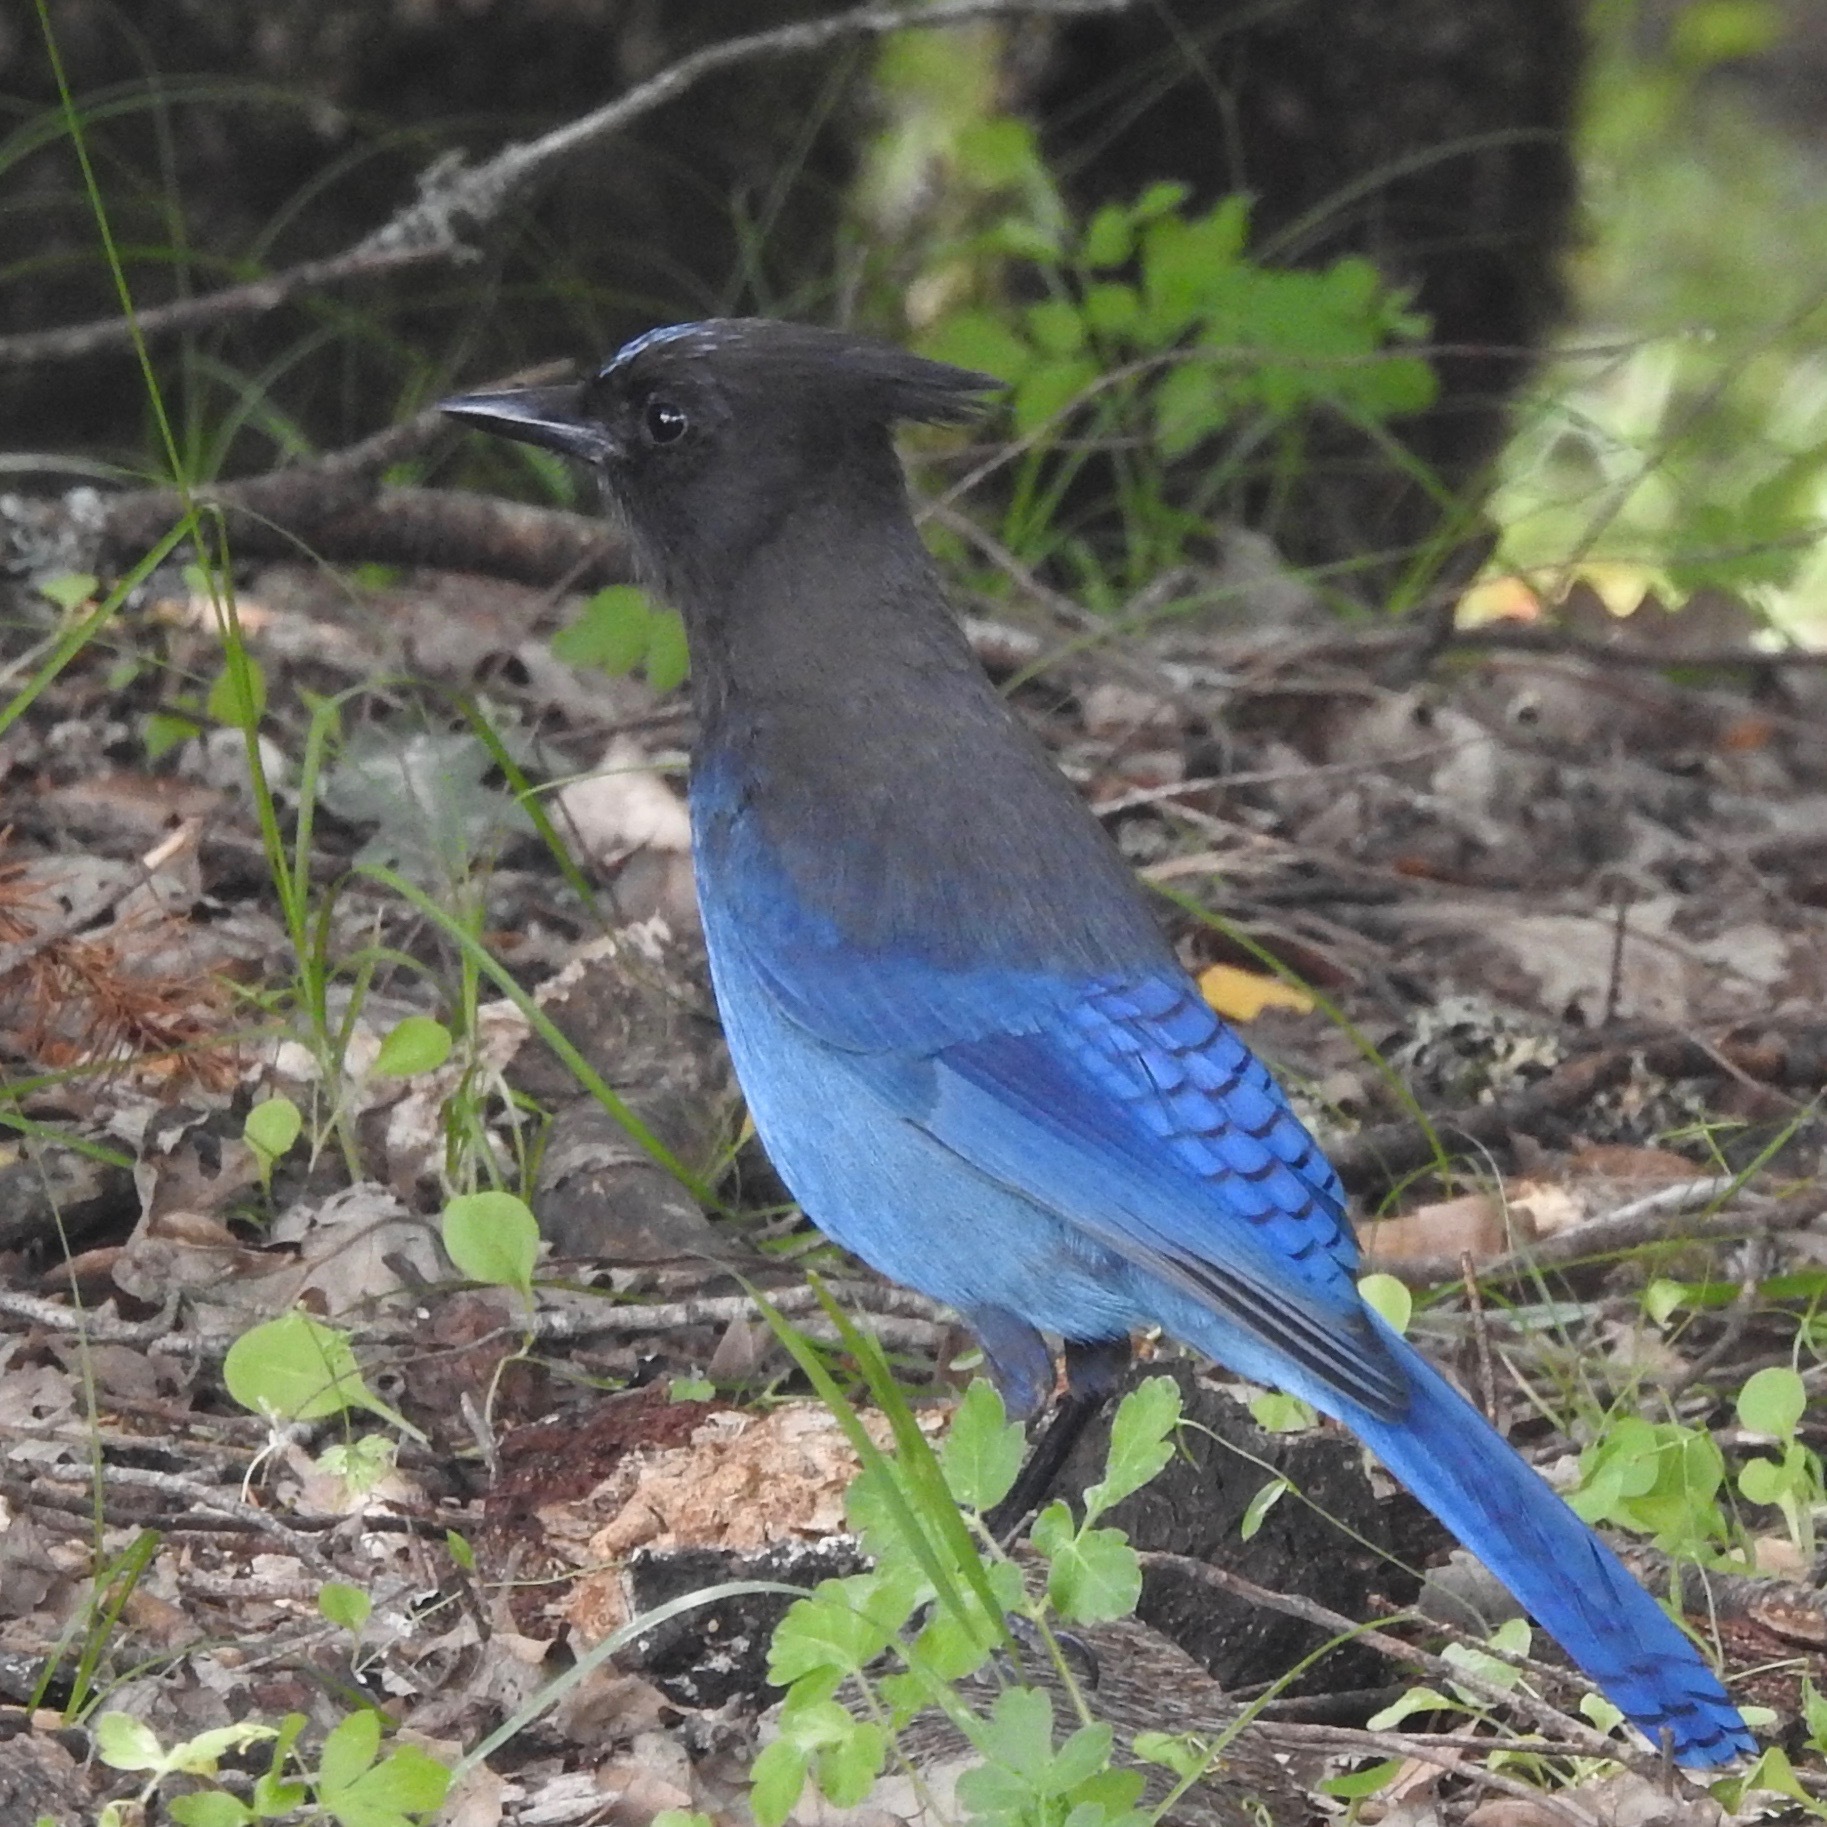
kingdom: Animalia
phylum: Chordata
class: Aves
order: Passeriformes
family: Corvidae
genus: Cyanocitta
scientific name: Cyanocitta stelleri
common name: Steller's jay
